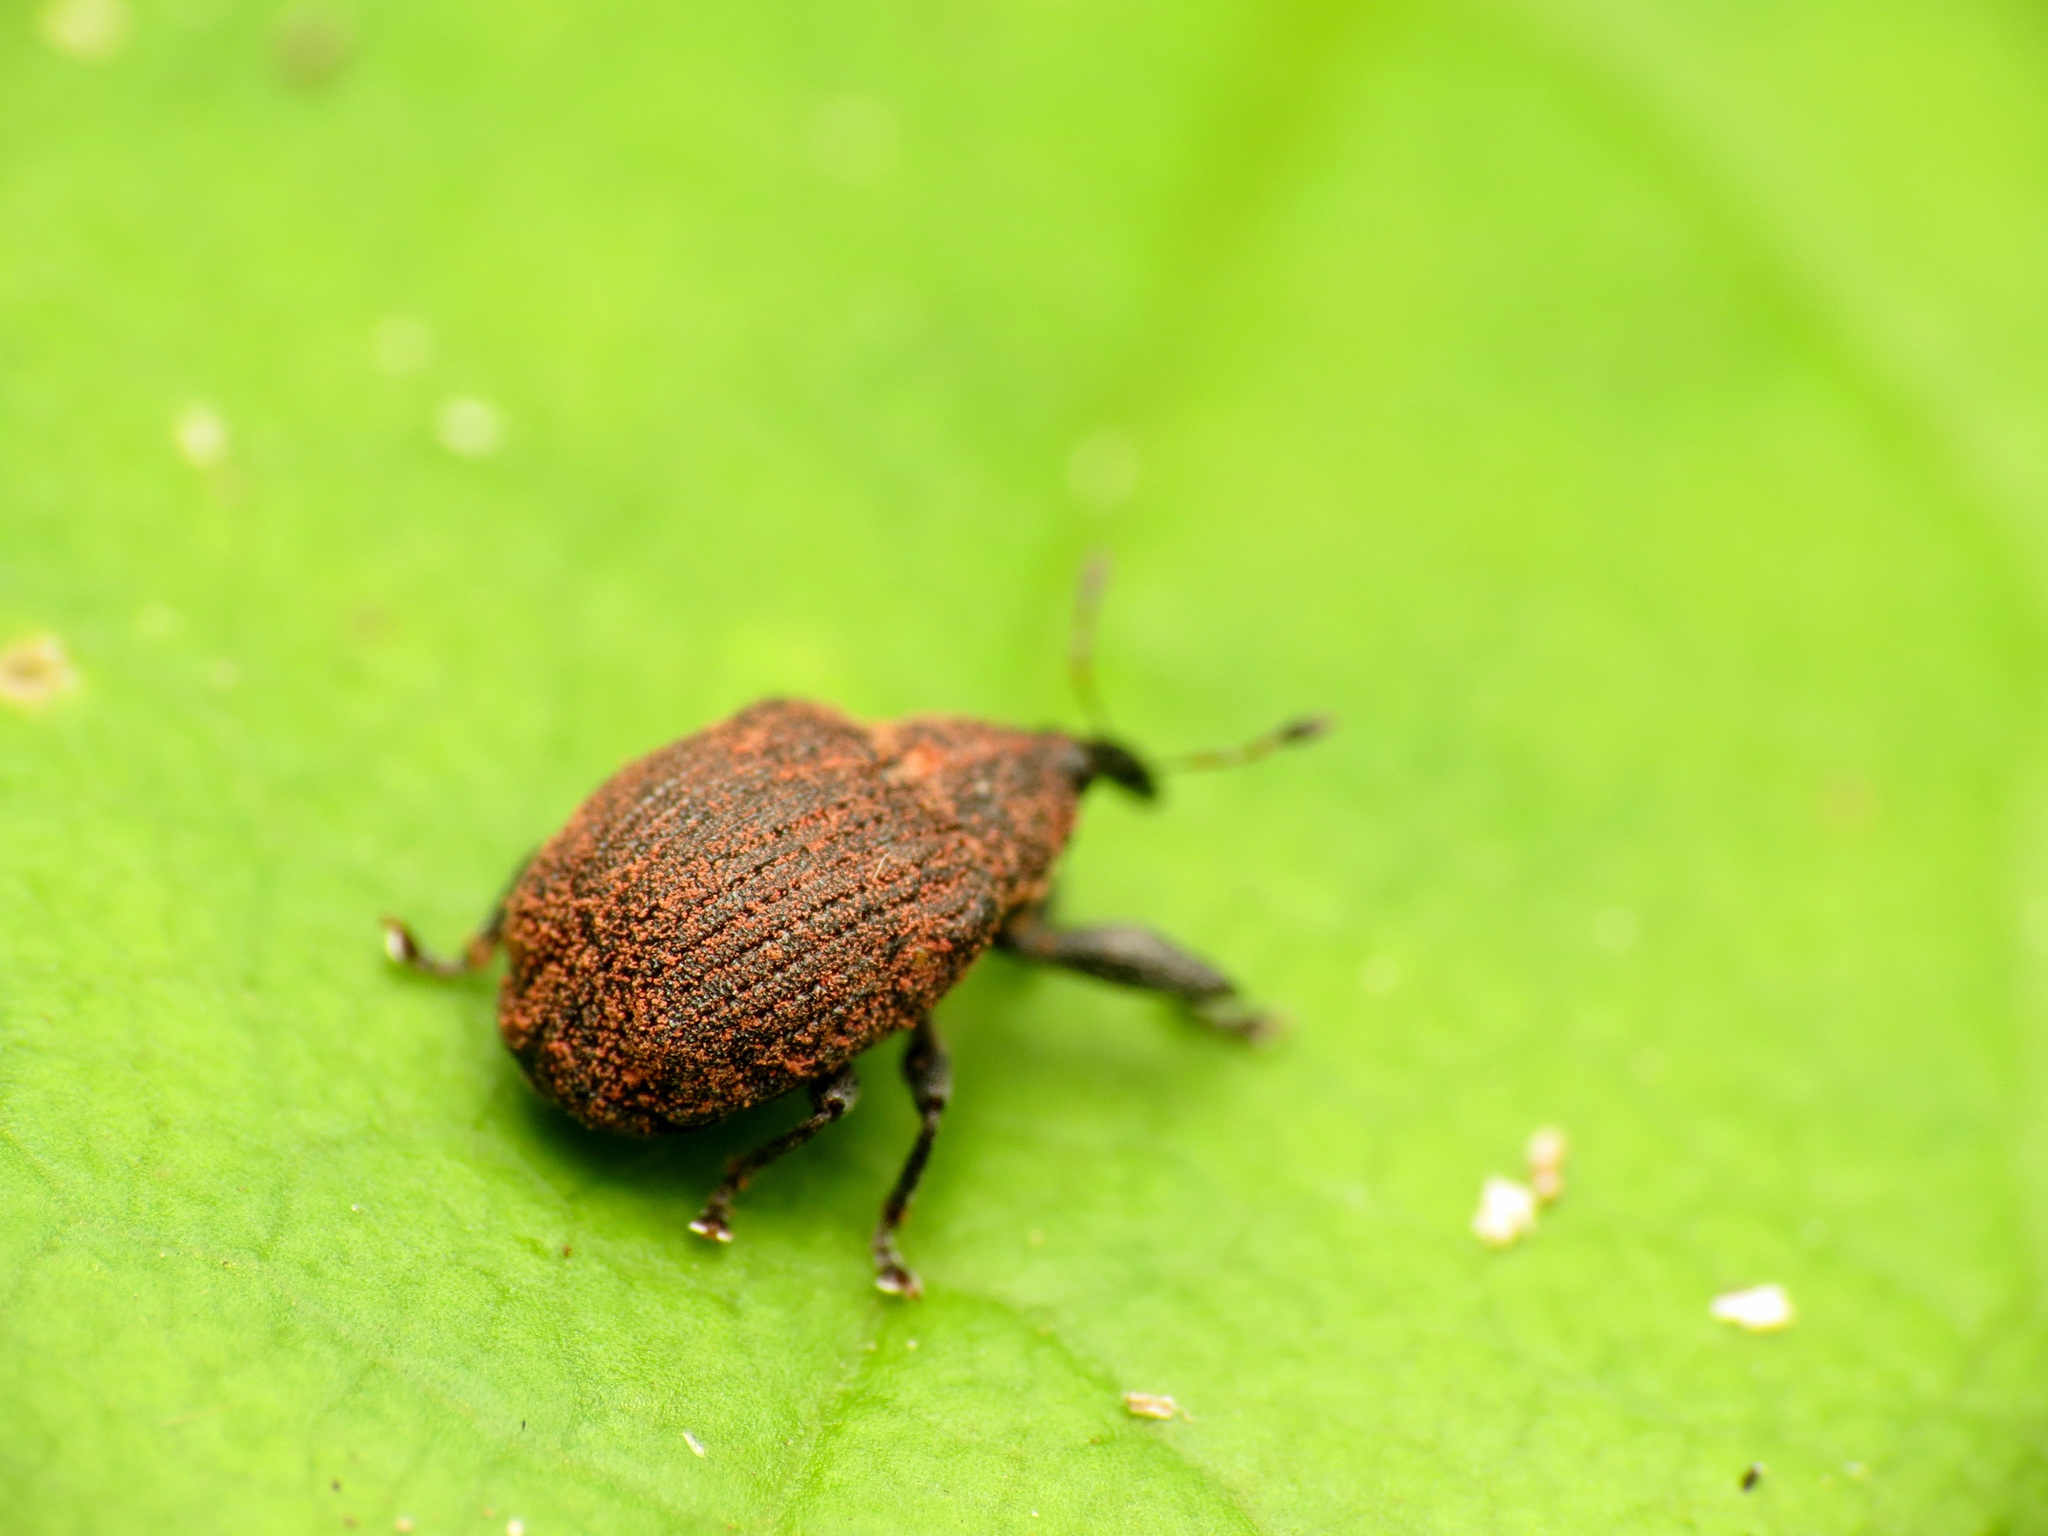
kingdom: Animalia
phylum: Arthropoda
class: Insecta
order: Coleoptera
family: Curculionidae
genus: Odontopus
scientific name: Odontopus calceatus
